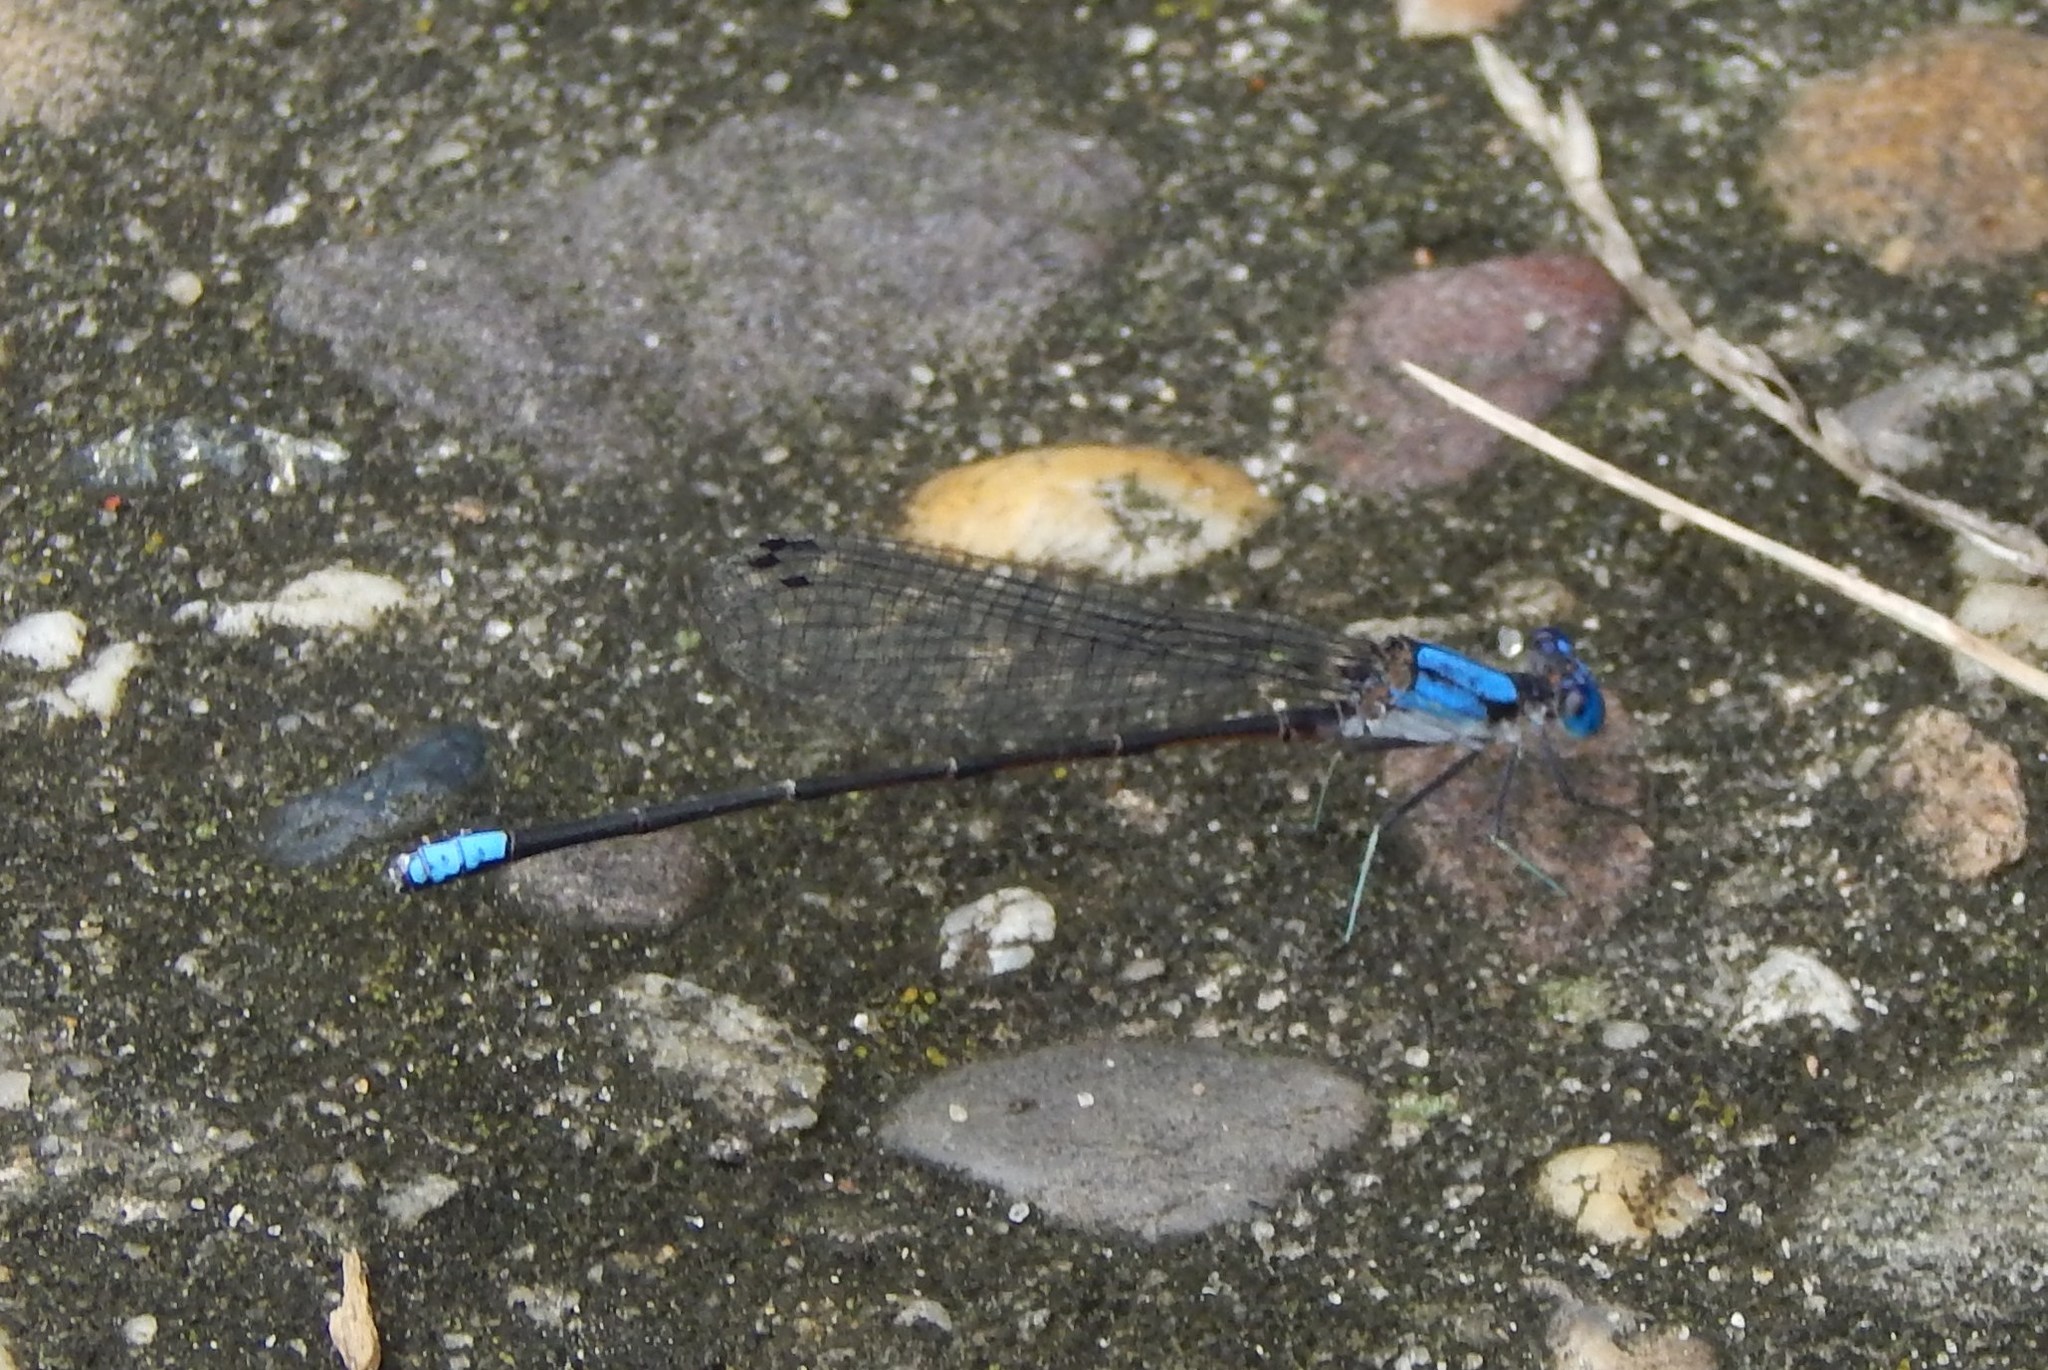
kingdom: Animalia
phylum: Arthropoda
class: Insecta
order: Odonata
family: Coenagrionidae
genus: Argia
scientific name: Argia apicalis
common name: Blue-fronted dancer
